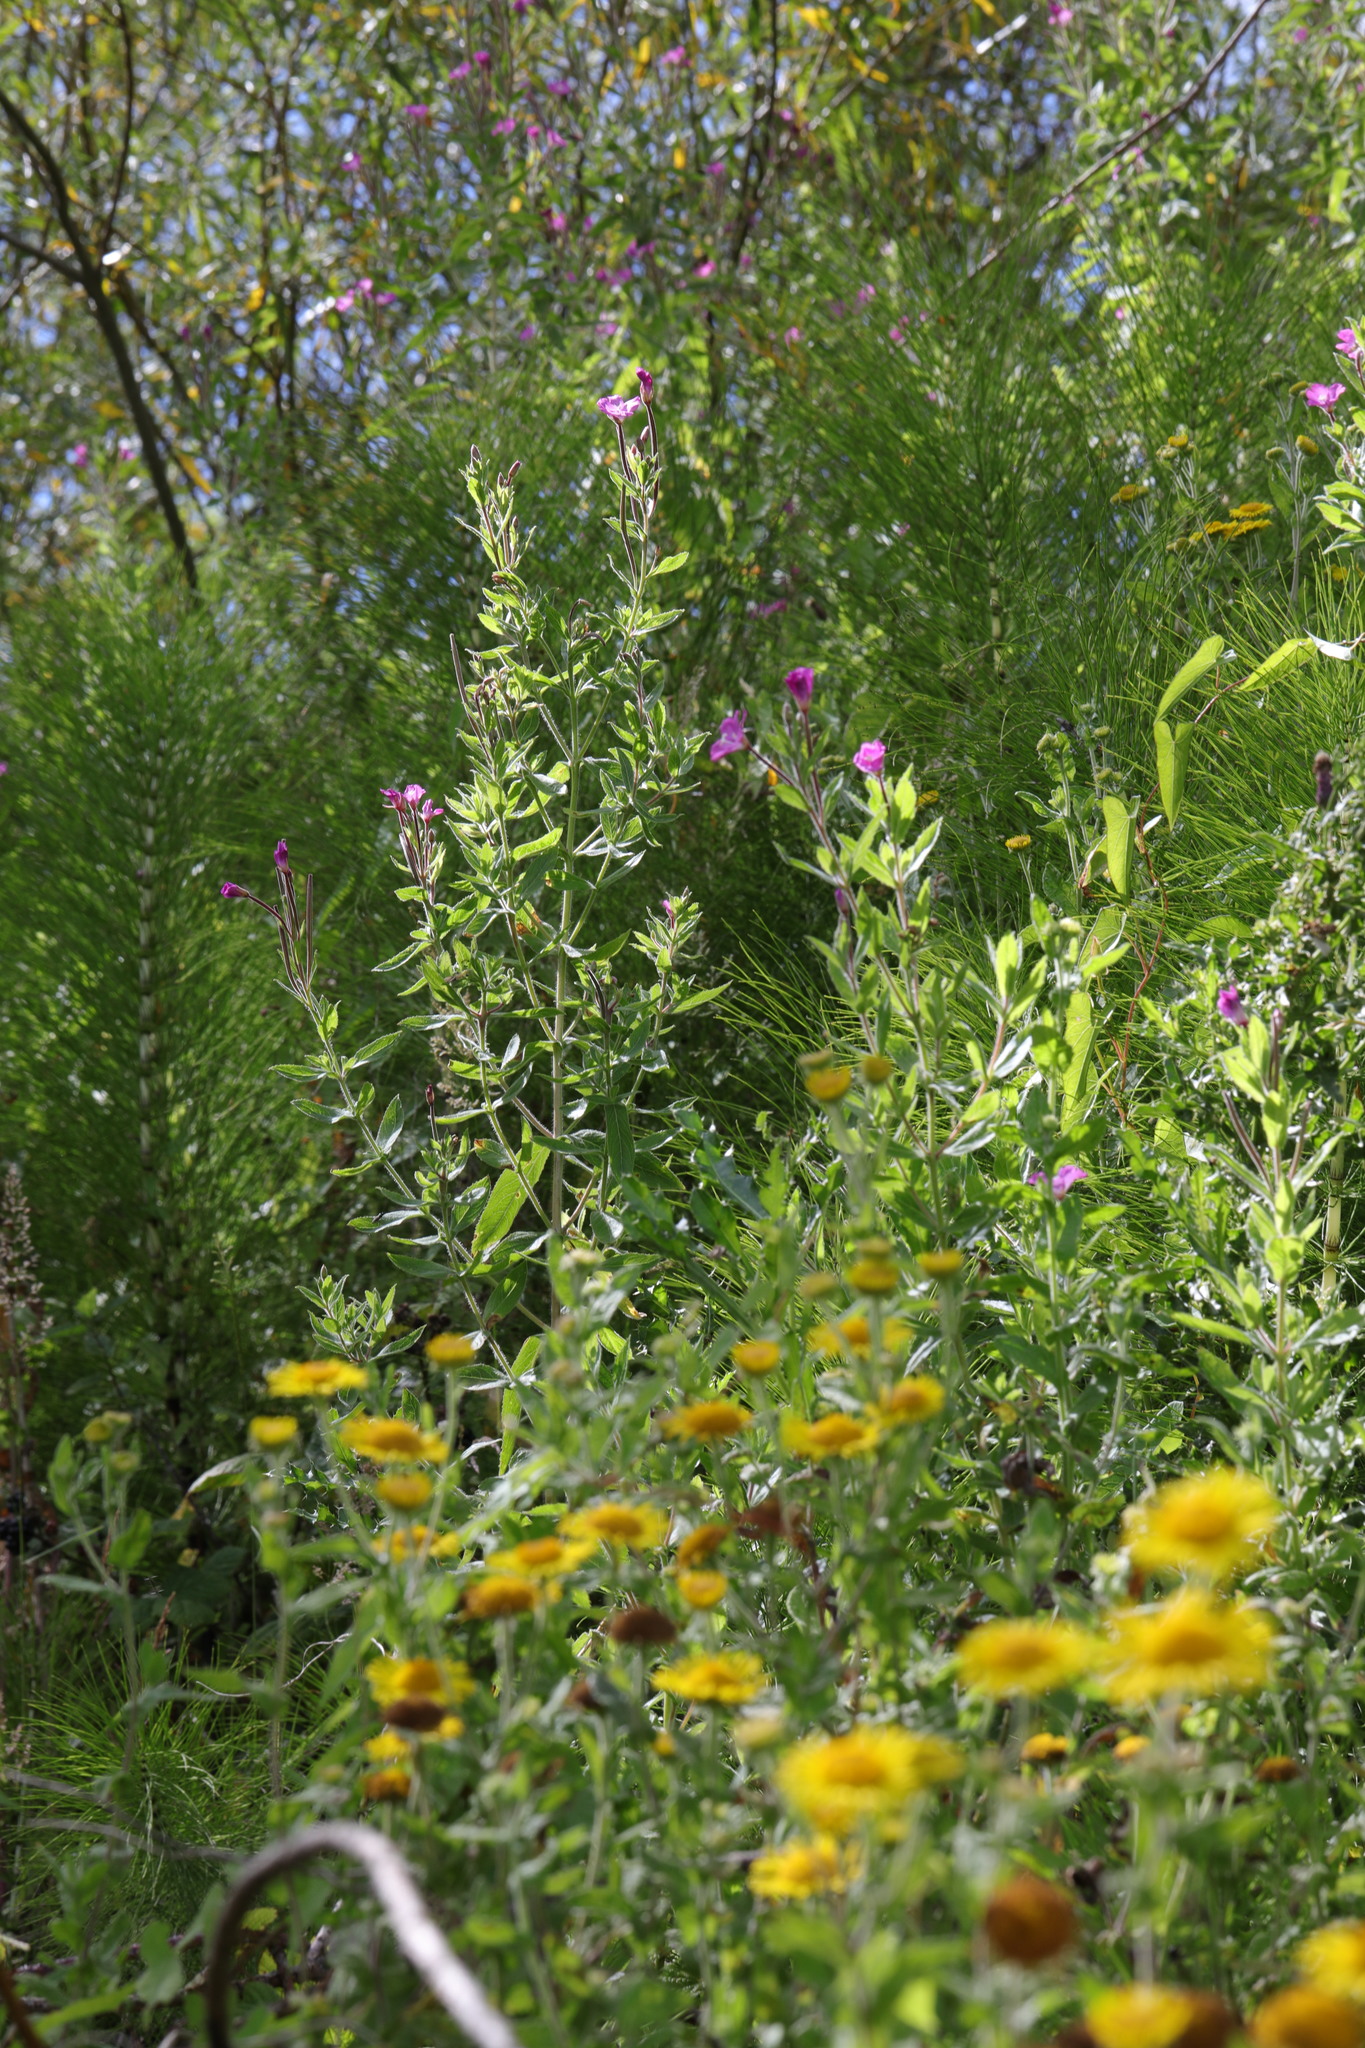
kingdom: Plantae
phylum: Tracheophyta
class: Magnoliopsida
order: Myrtales
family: Onagraceae
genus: Epilobium
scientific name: Epilobium hirsutum
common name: Great willowherb
